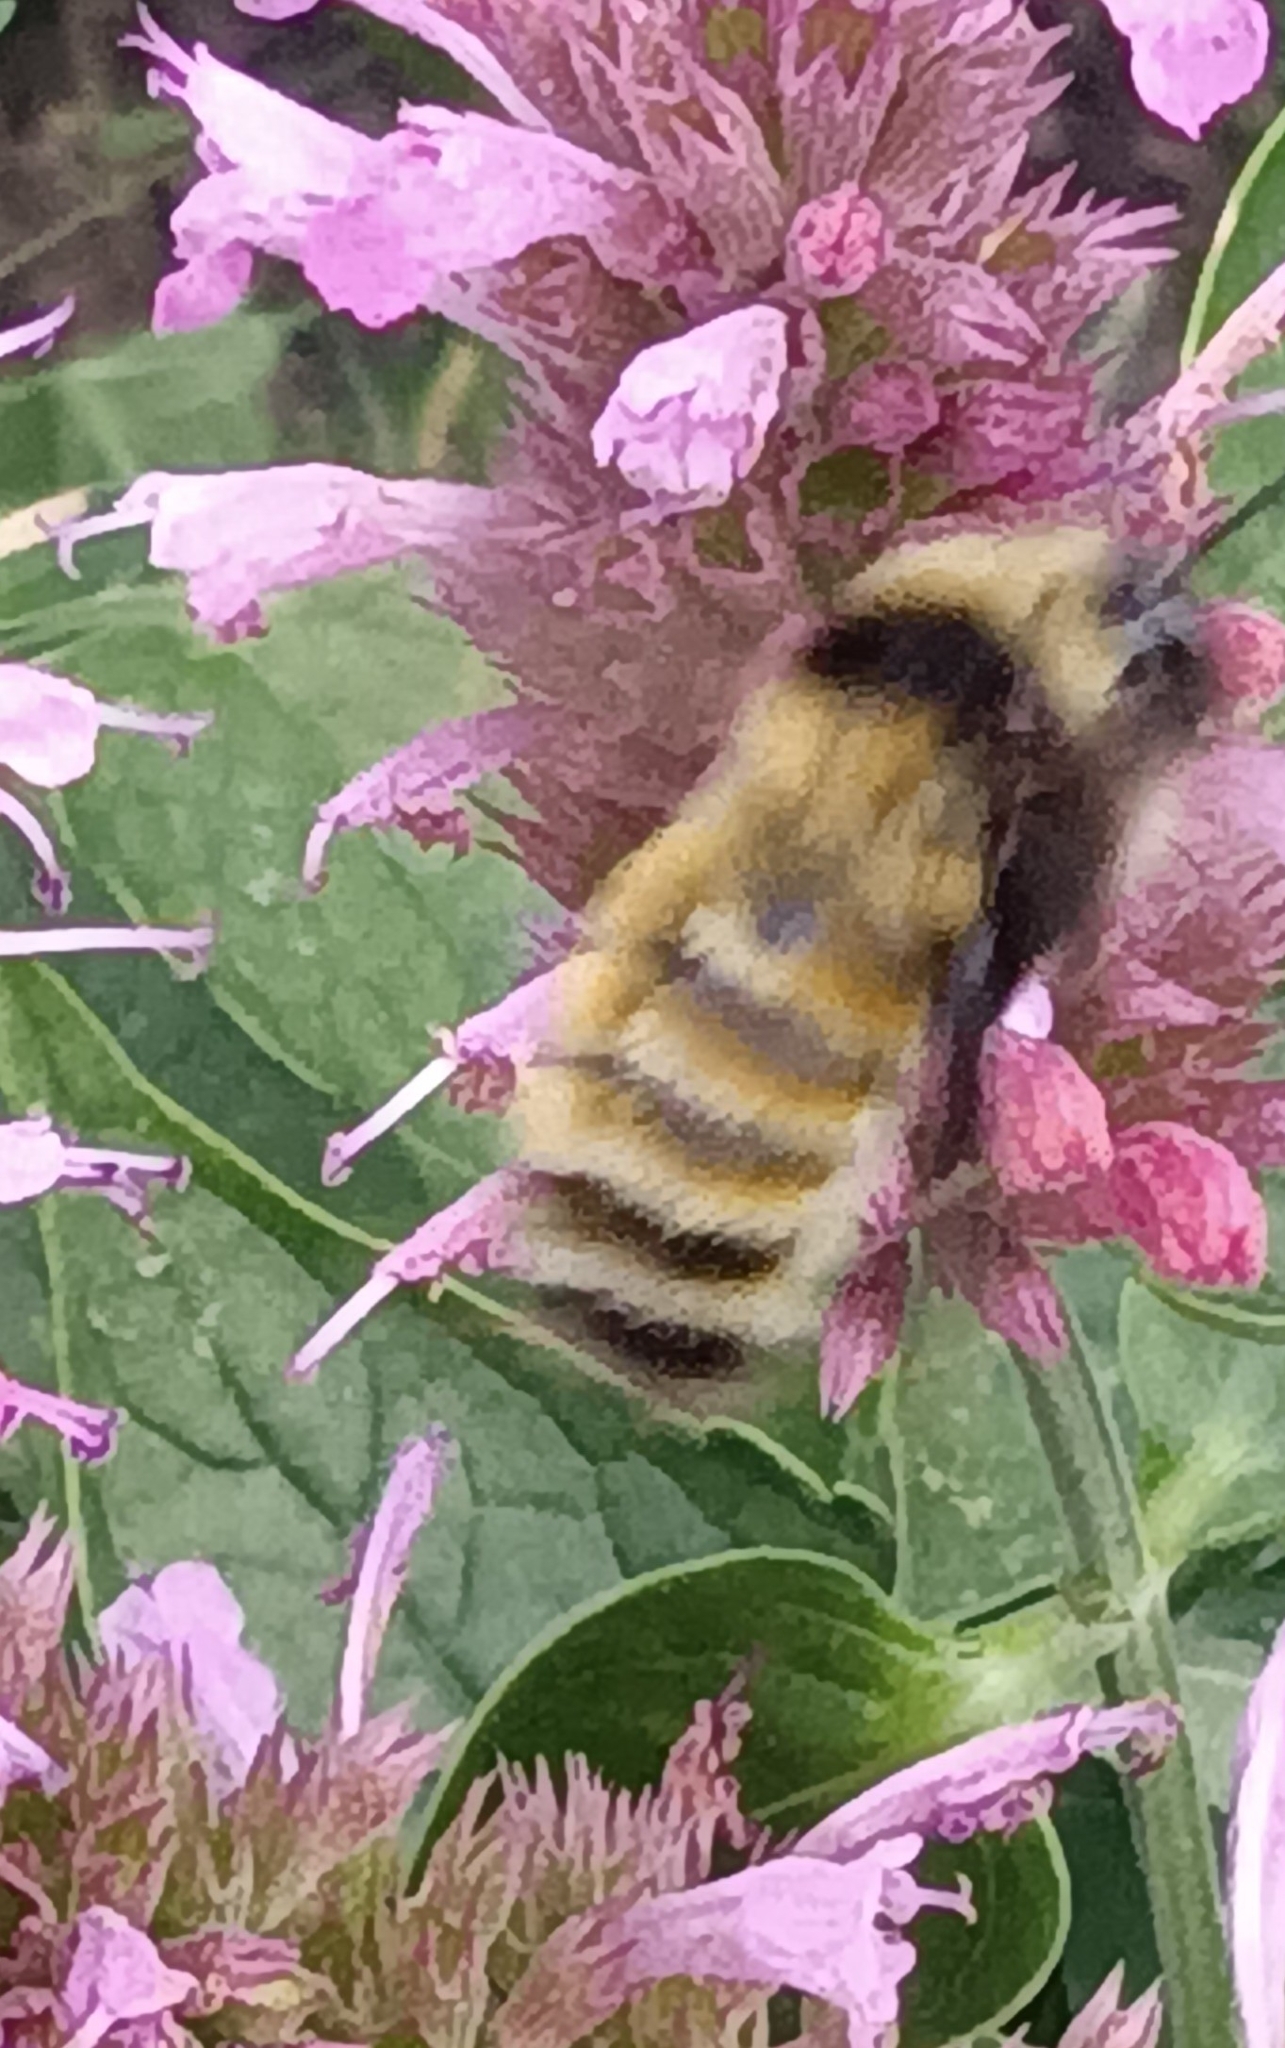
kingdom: Animalia
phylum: Arthropoda
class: Insecta
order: Hymenoptera
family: Apidae
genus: Bombus
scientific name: Bombus borealis
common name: Northern amber bumble bee
